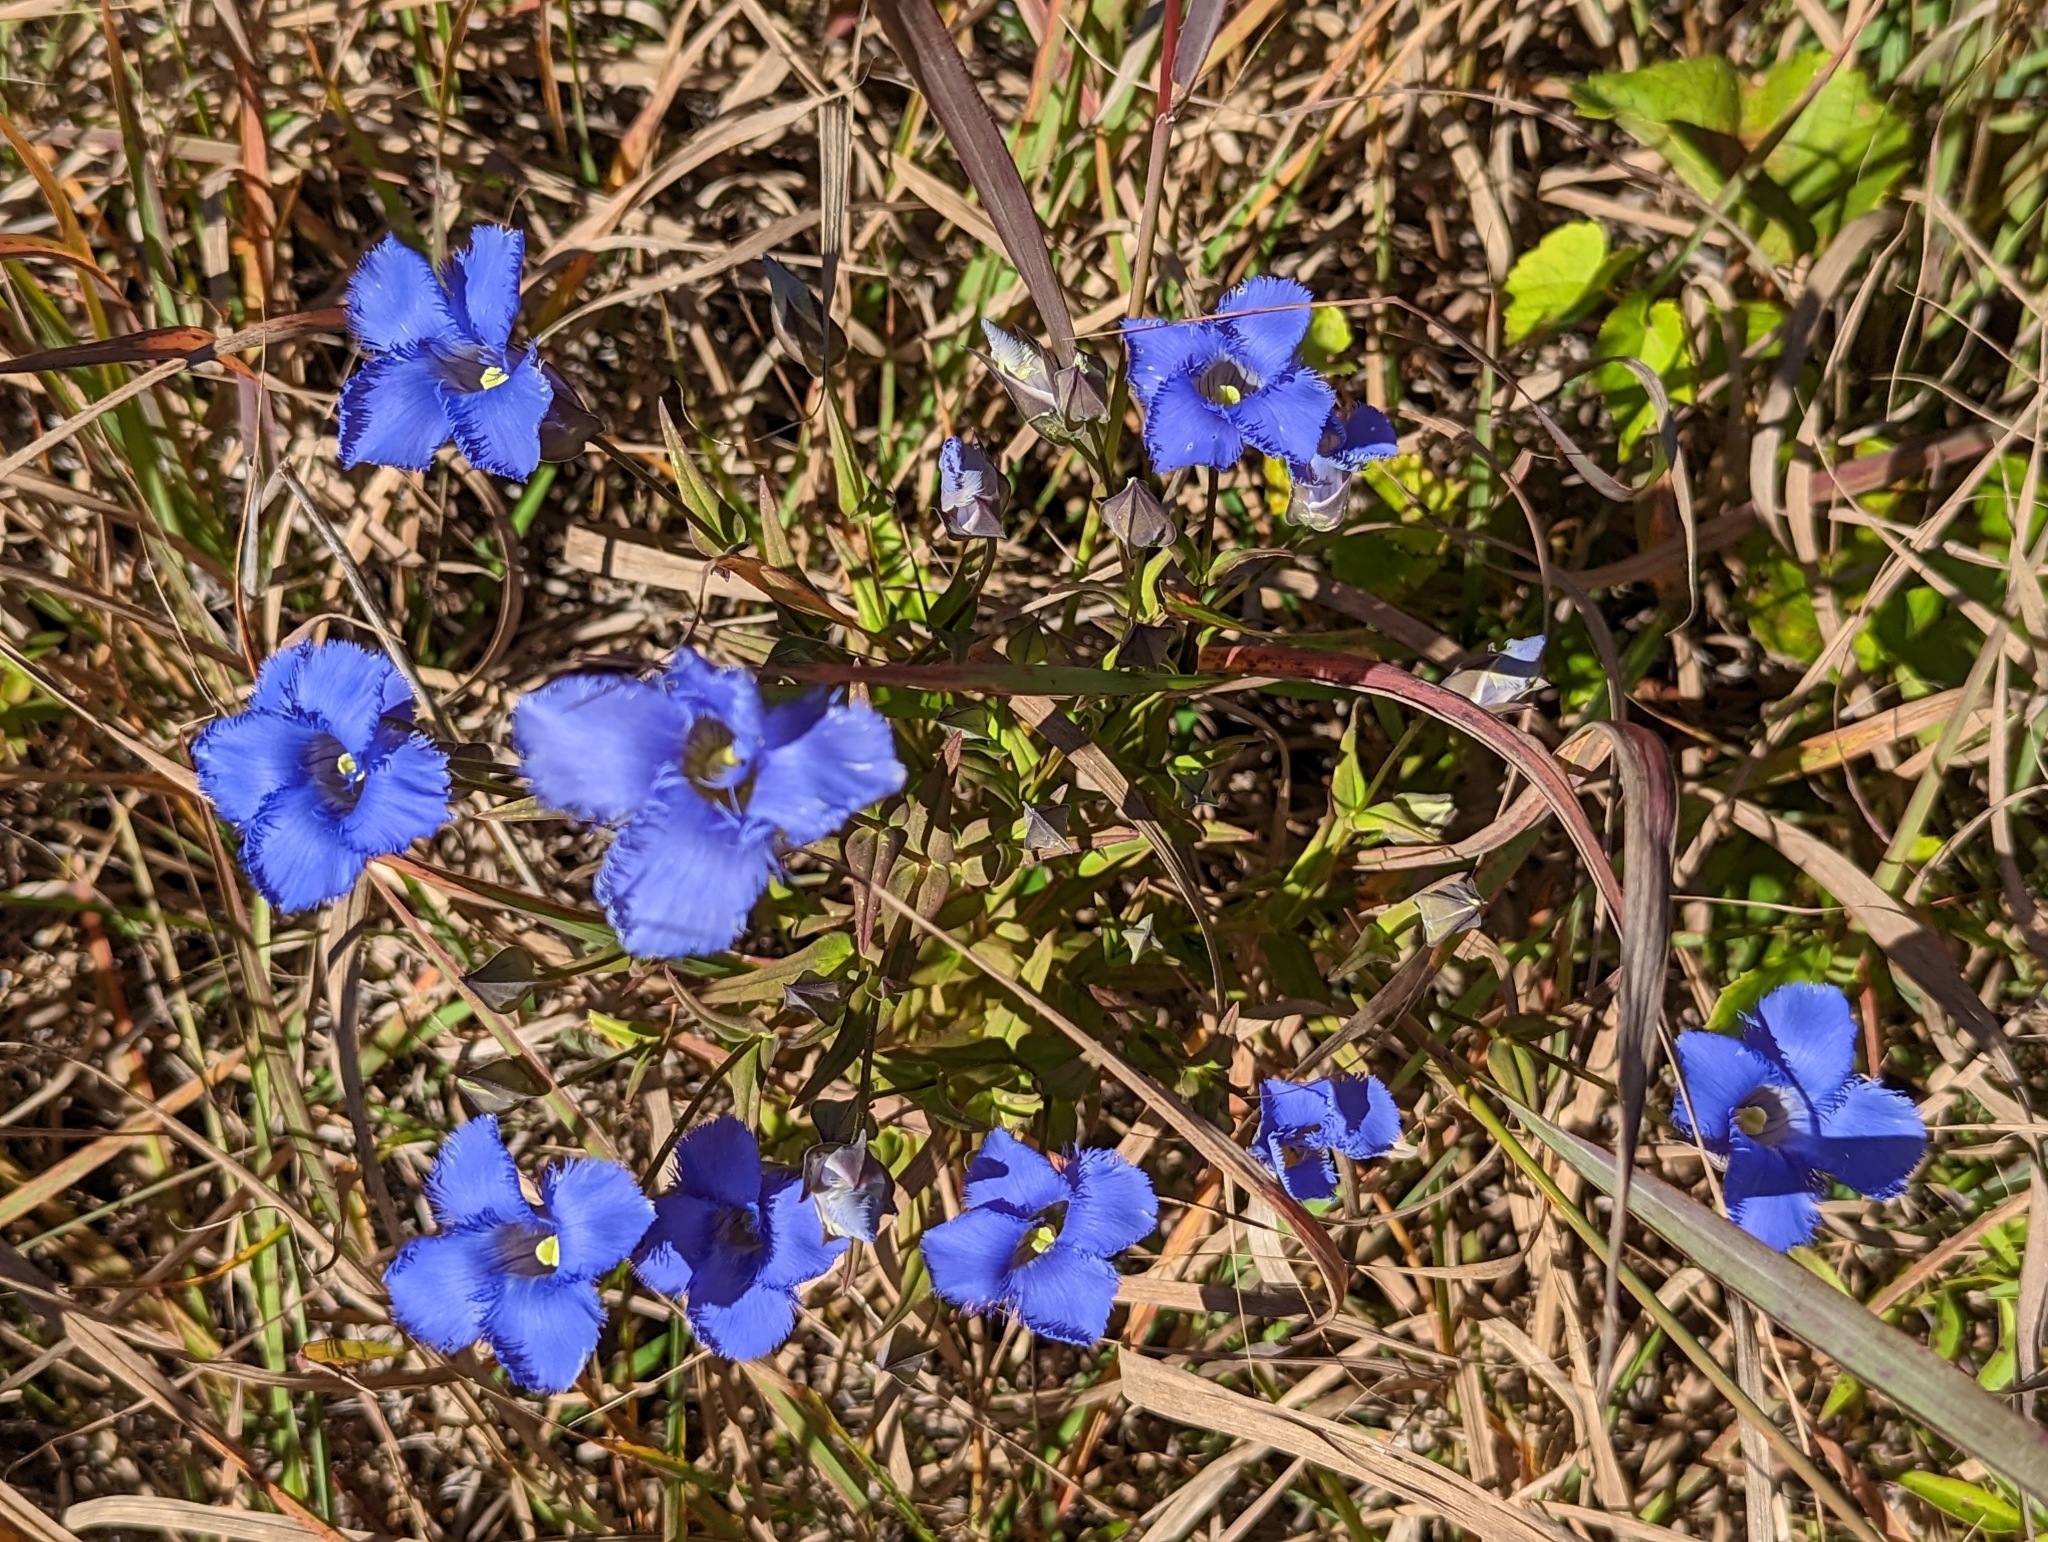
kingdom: Plantae
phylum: Tracheophyta
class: Magnoliopsida
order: Gentianales
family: Gentianaceae
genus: Gentianopsis
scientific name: Gentianopsis crinita
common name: Fringed-gentian
